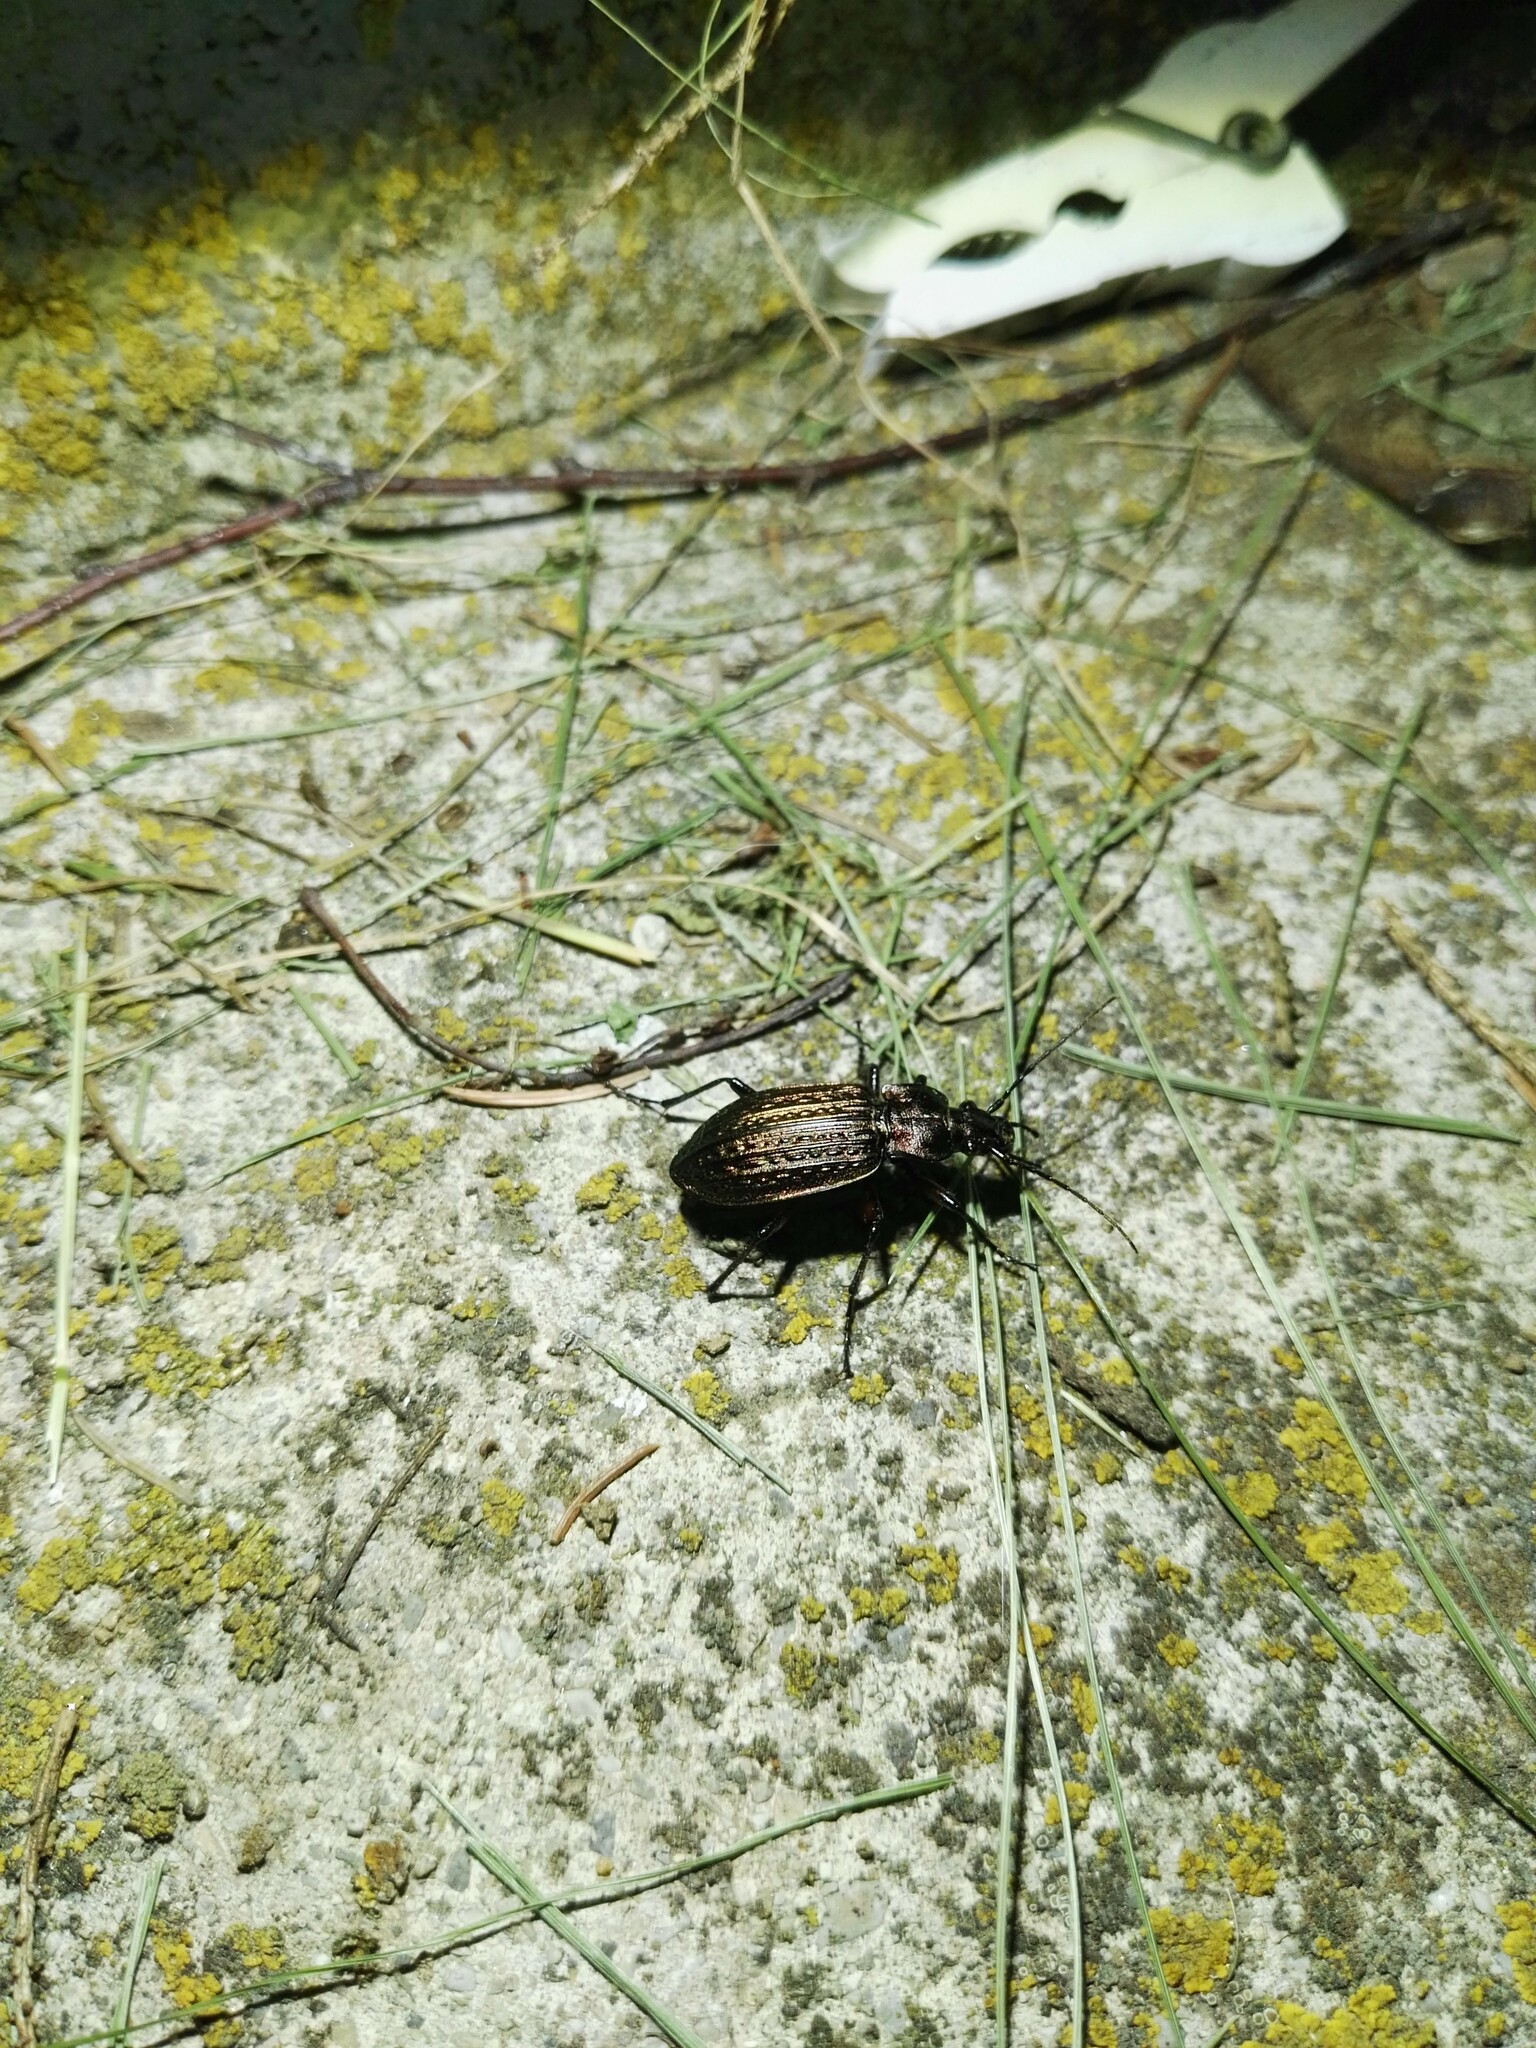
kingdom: Animalia
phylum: Arthropoda
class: Insecta
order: Coleoptera
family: Carabidae
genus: Carabus
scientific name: Carabus granulatus
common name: Granulate ground beetle
